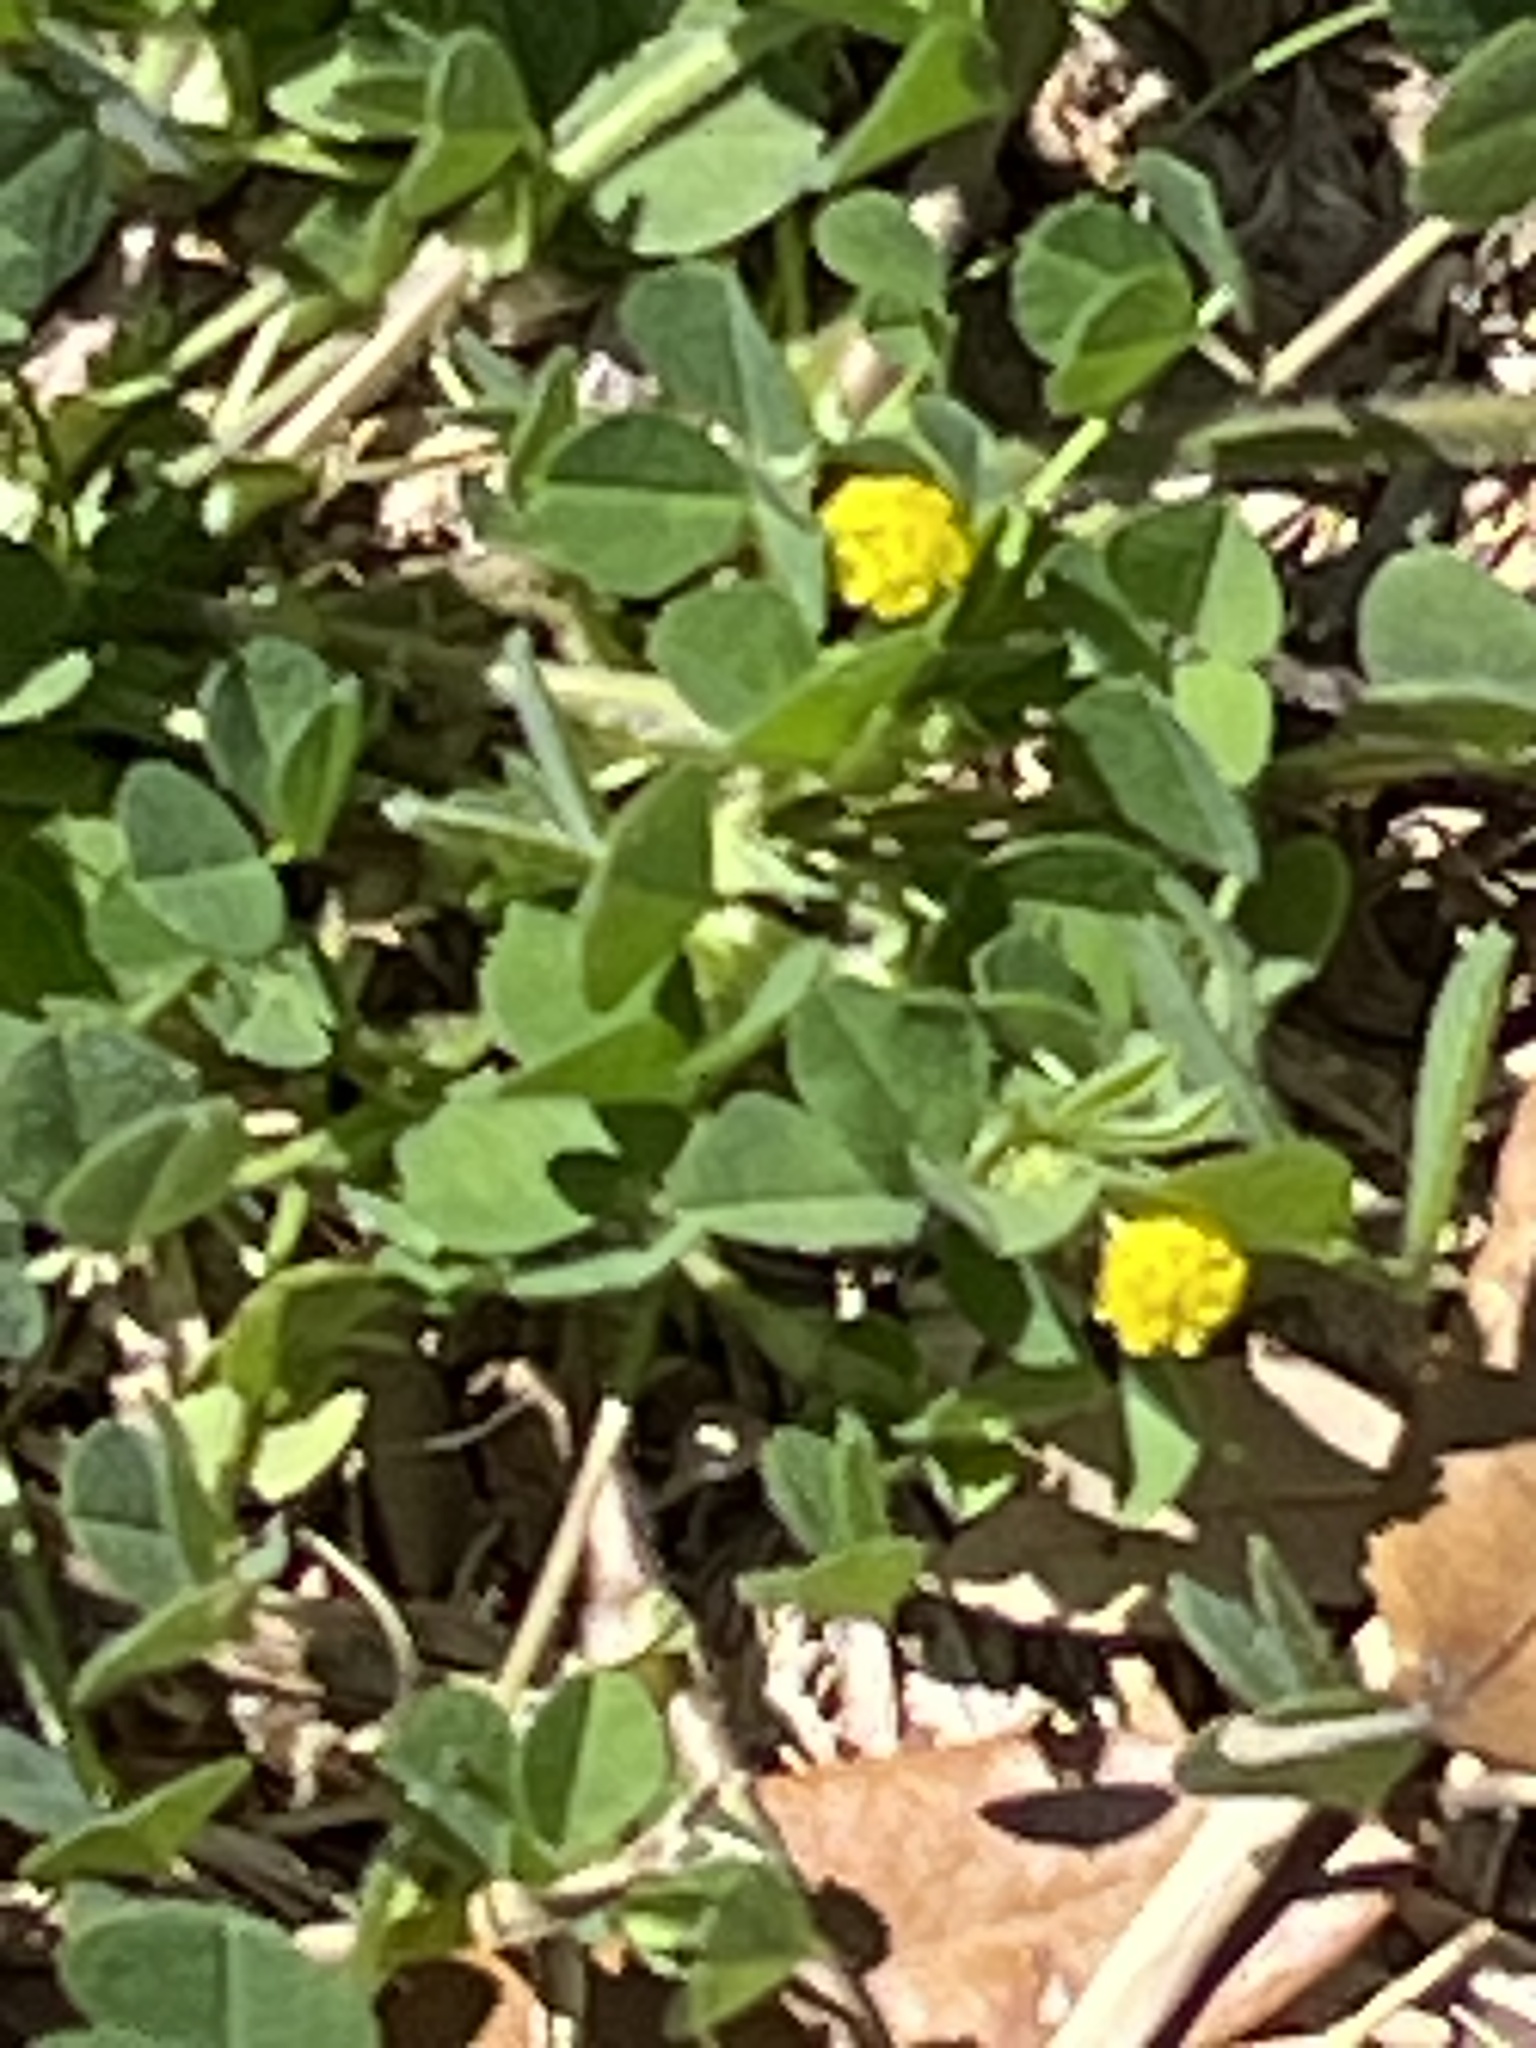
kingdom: Plantae
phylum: Tracheophyta
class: Magnoliopsida
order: Fabales
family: Fabaceae
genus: Medicago
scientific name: Medicago lupulina
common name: Black medick
